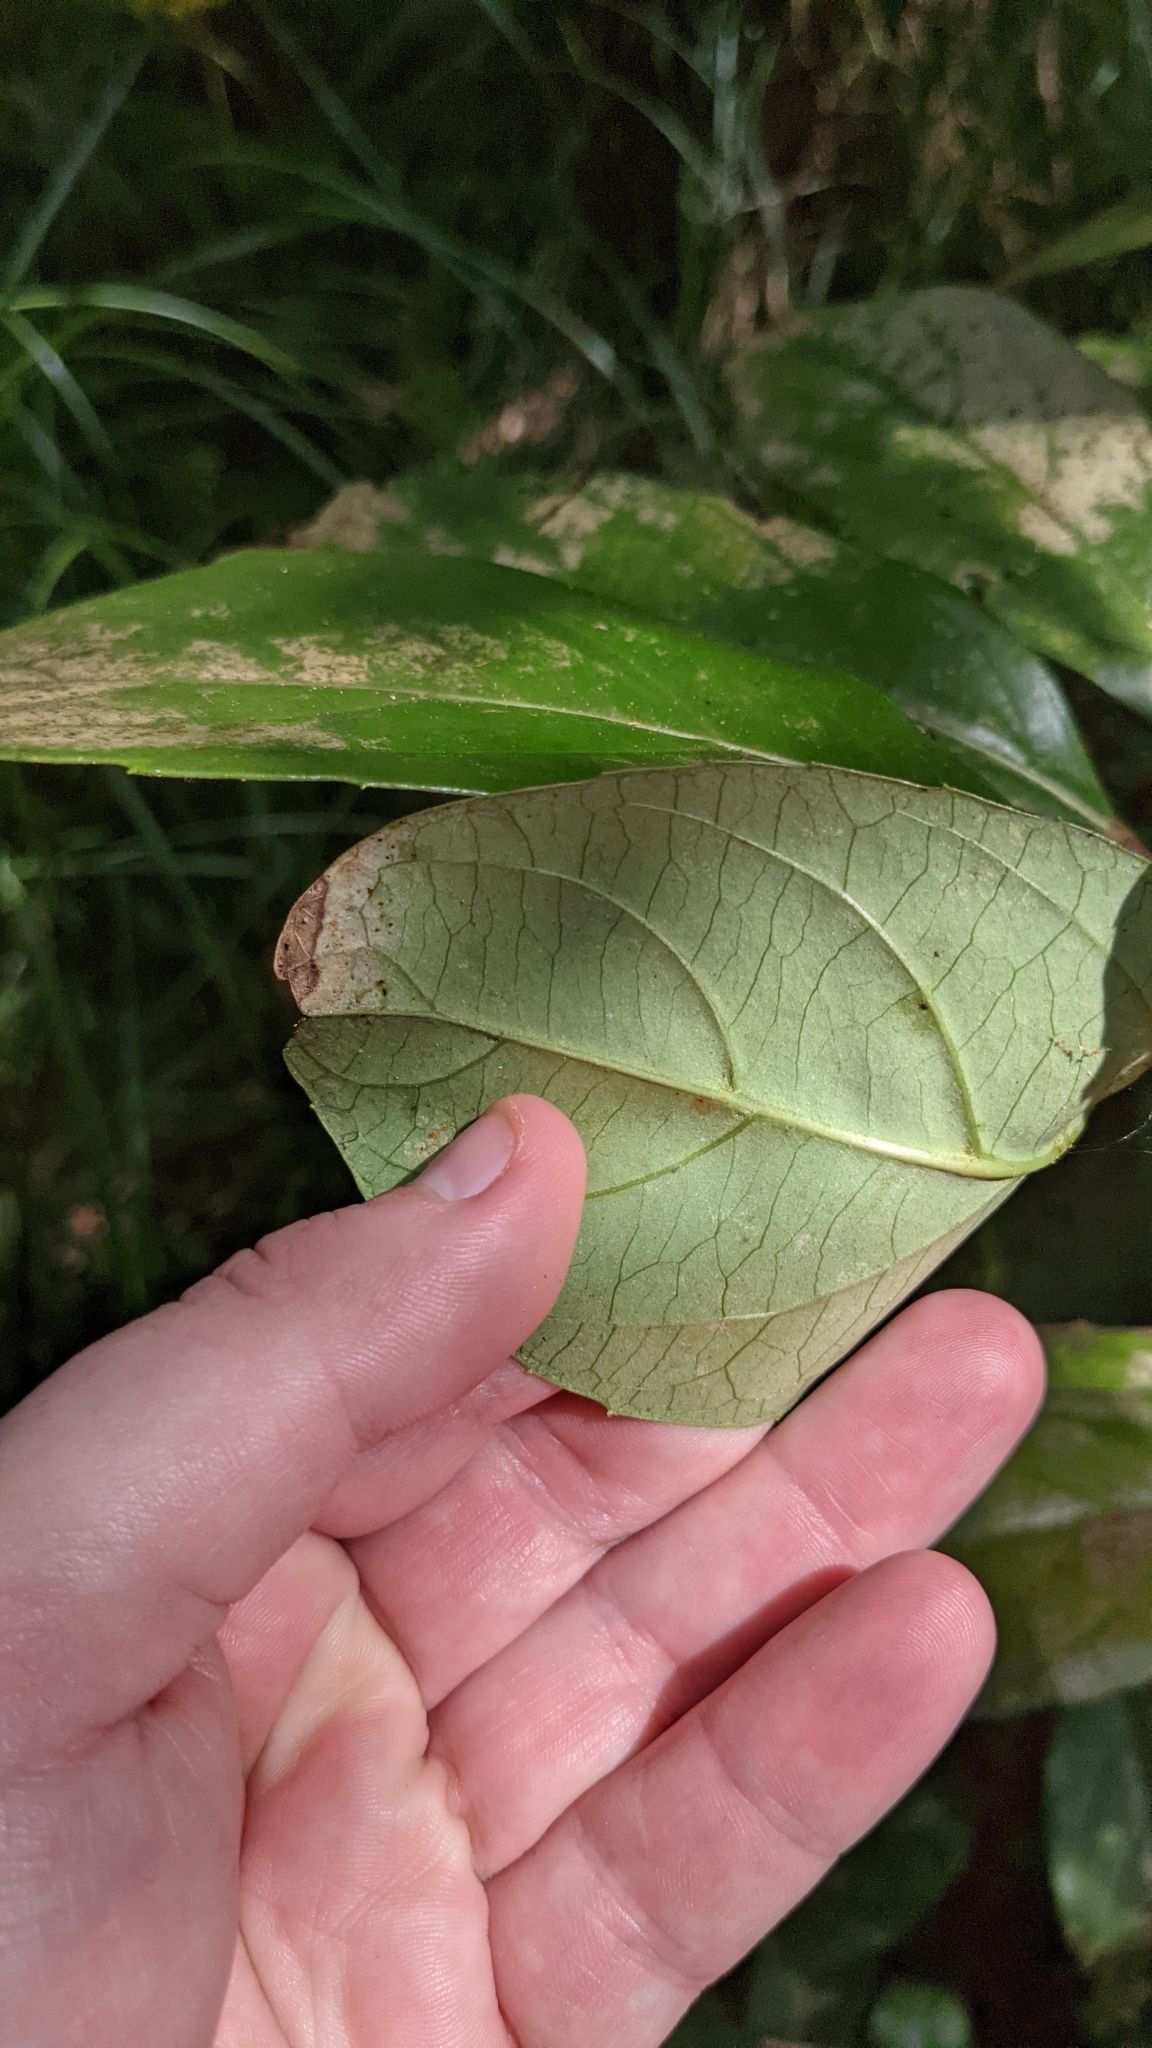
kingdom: Plantae
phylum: Tracheophyta
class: Magnoliopsida
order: Dipsacales
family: Viburnaceae
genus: Viburnum
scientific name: Viburnum odoratissimum
